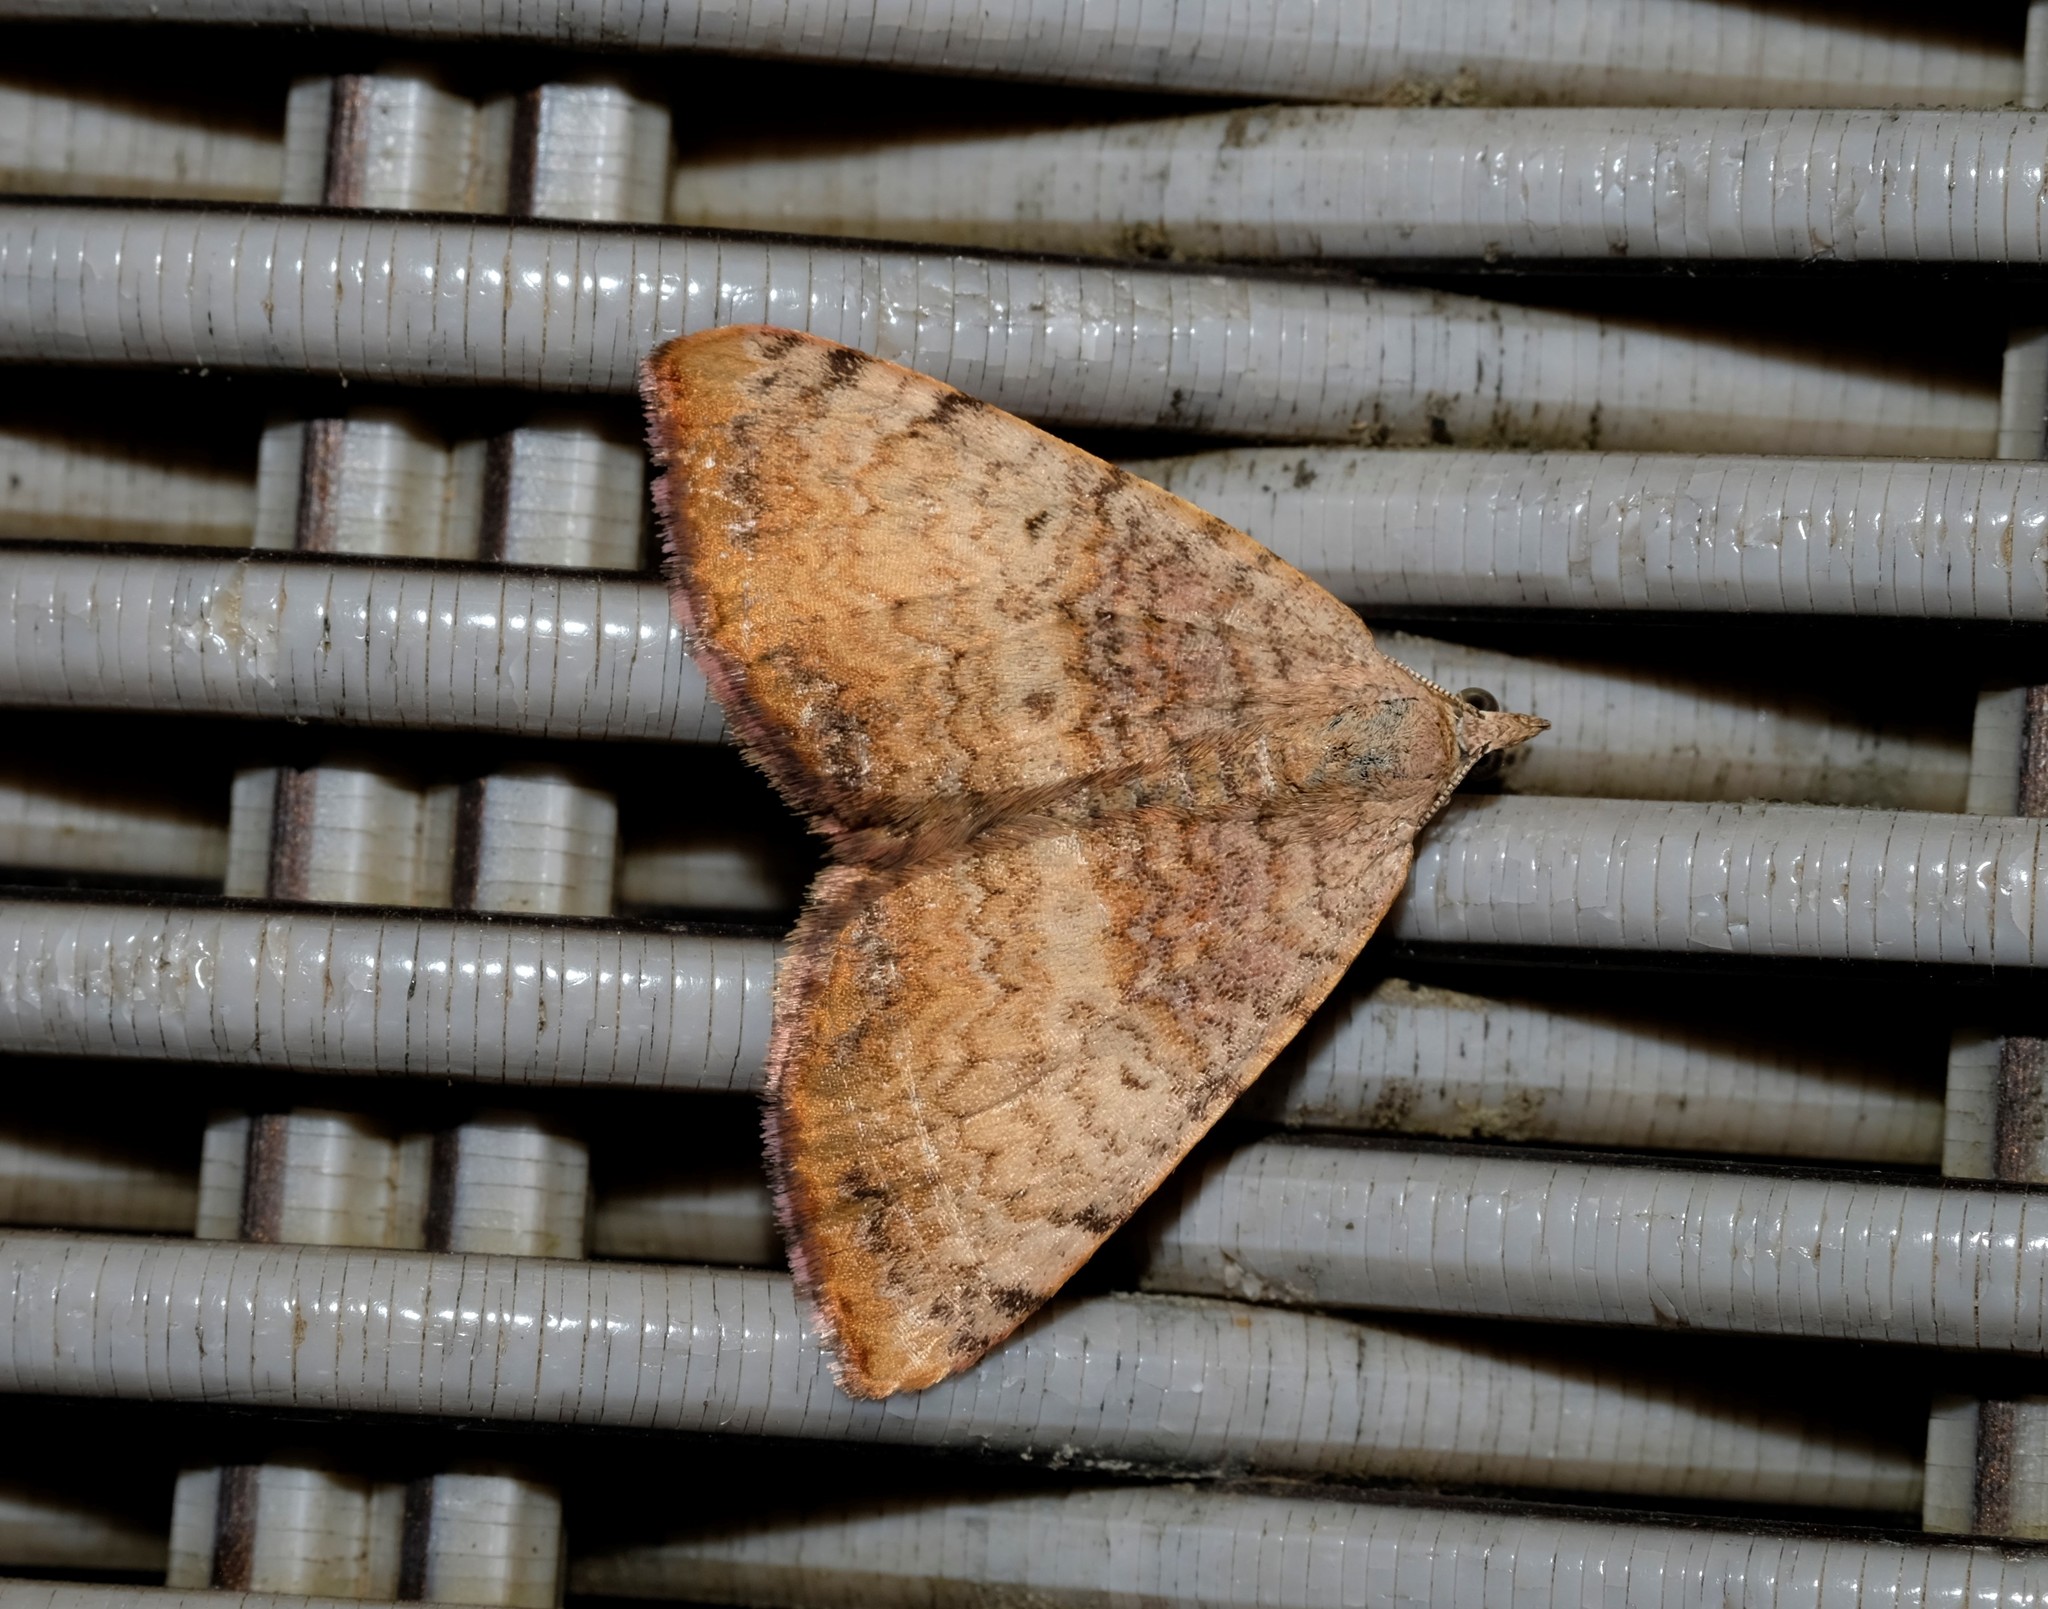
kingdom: Animalia
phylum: Arthropoda
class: Insecta
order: Lepidoptera
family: Geometridae
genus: Chrysolarentia
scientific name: Chrysolarentia mecynata
